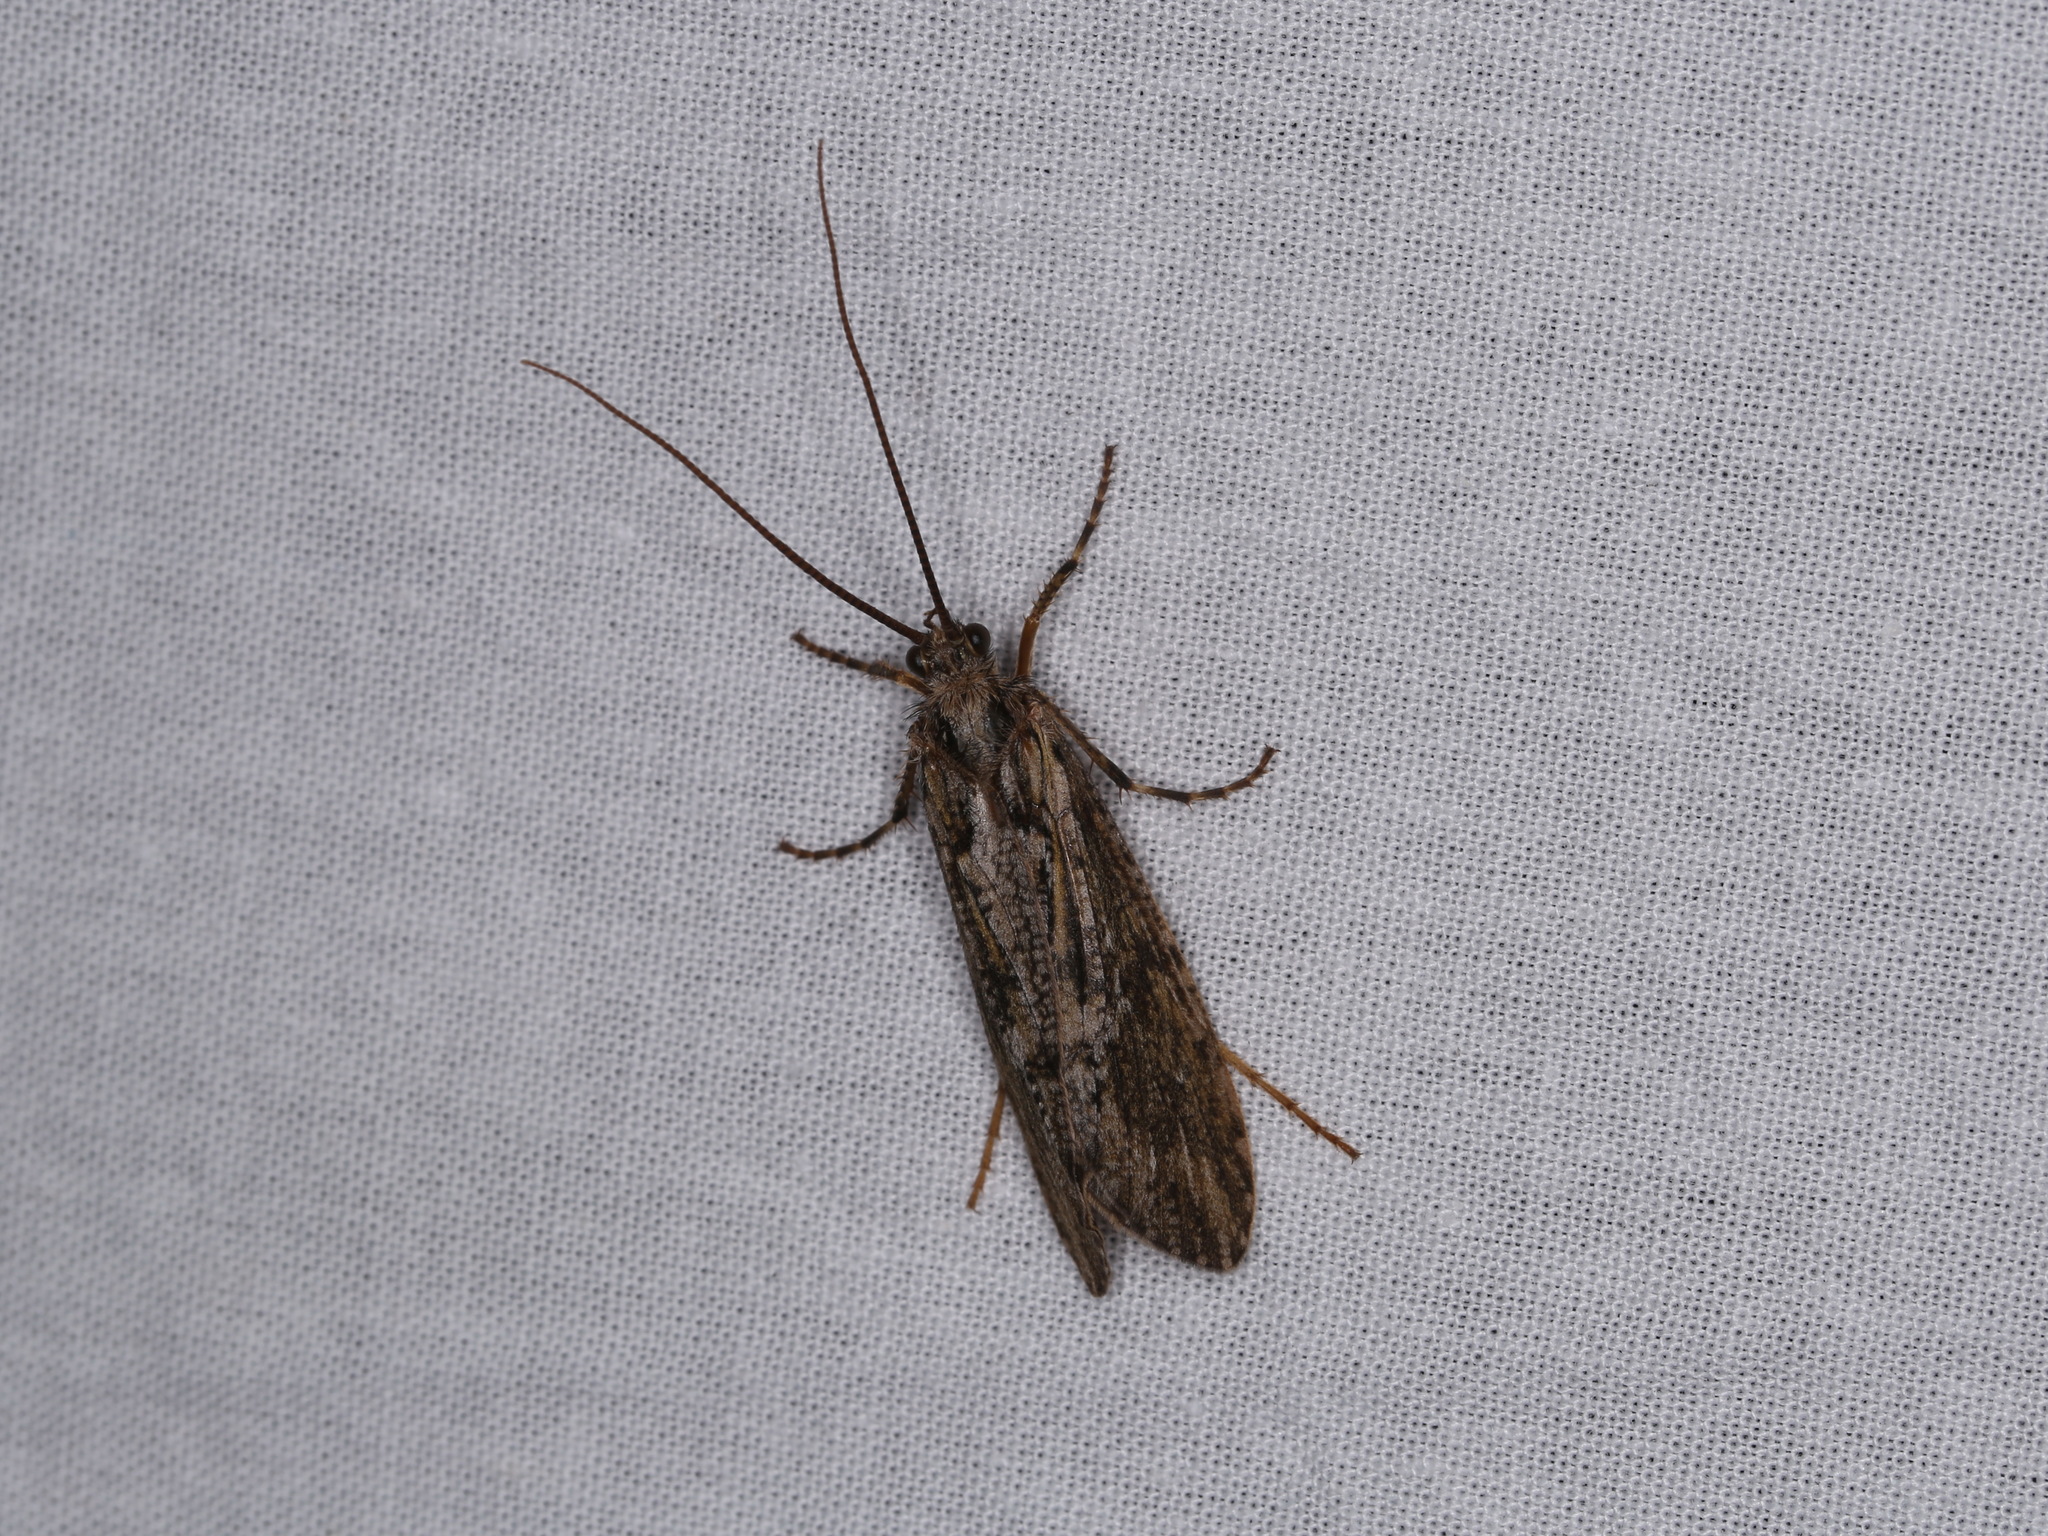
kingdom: Animalia
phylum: Arthropoda
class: Insecta
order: Trichoptera
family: Phryganeidae
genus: Phryganea
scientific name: Phryganea grandis
